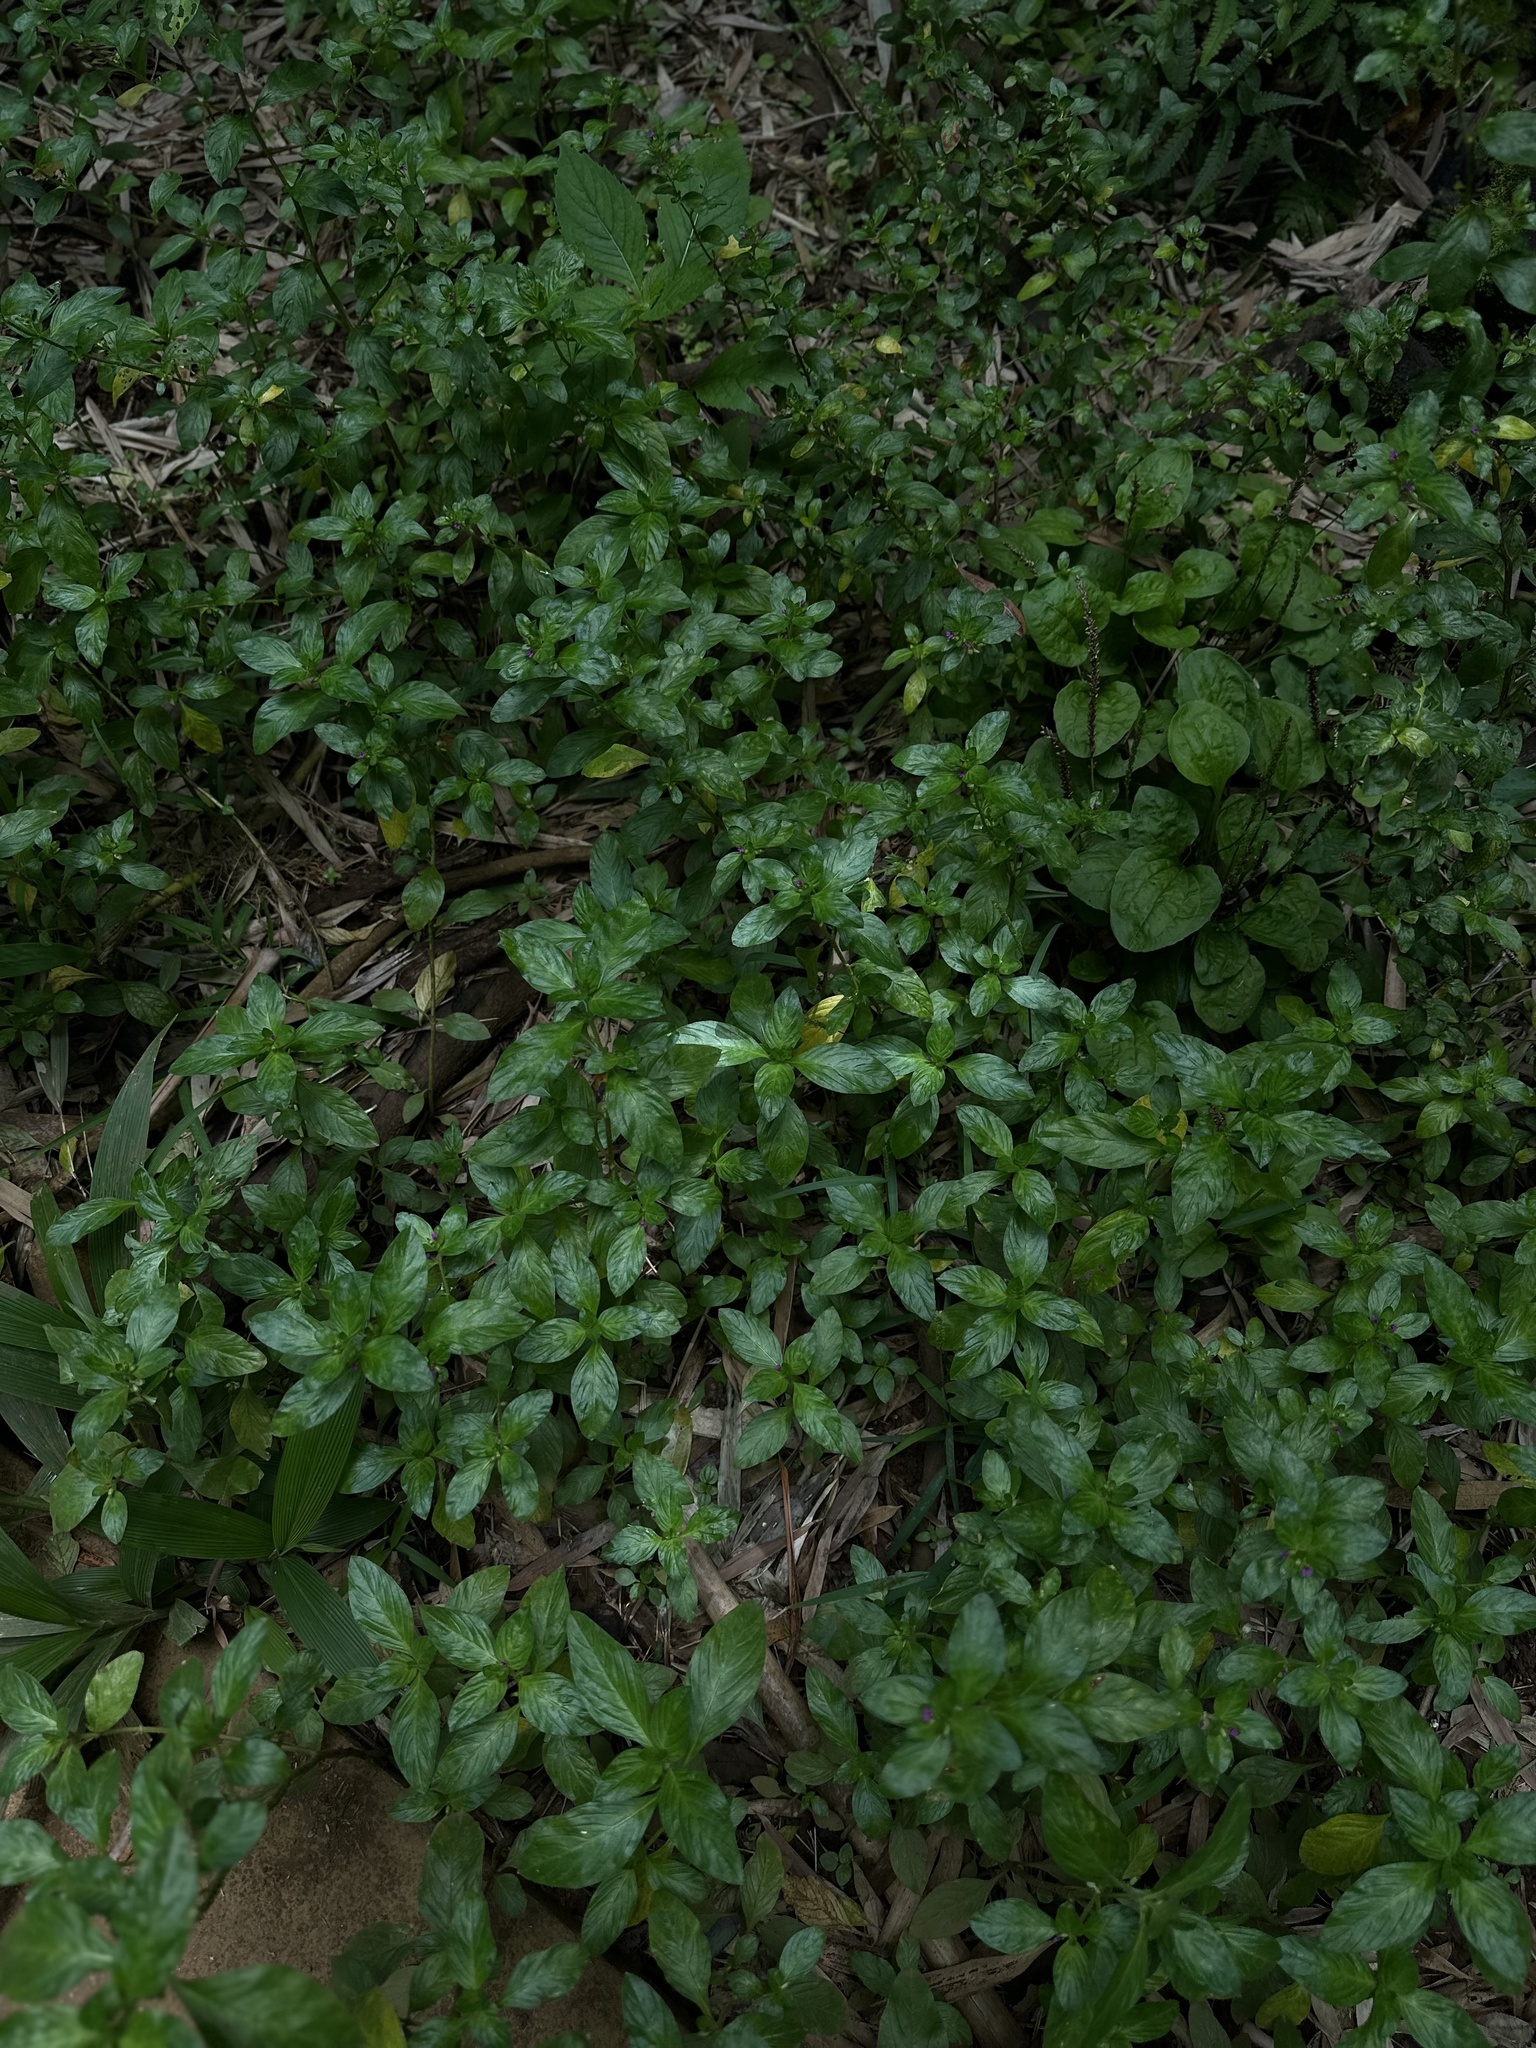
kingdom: Plantae
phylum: Tracheophyta
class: Magnoliopsida
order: Myrtales
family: Lythraceae
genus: Cuphea
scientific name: Cuphea carthagenensis
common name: Colombian waxweed
